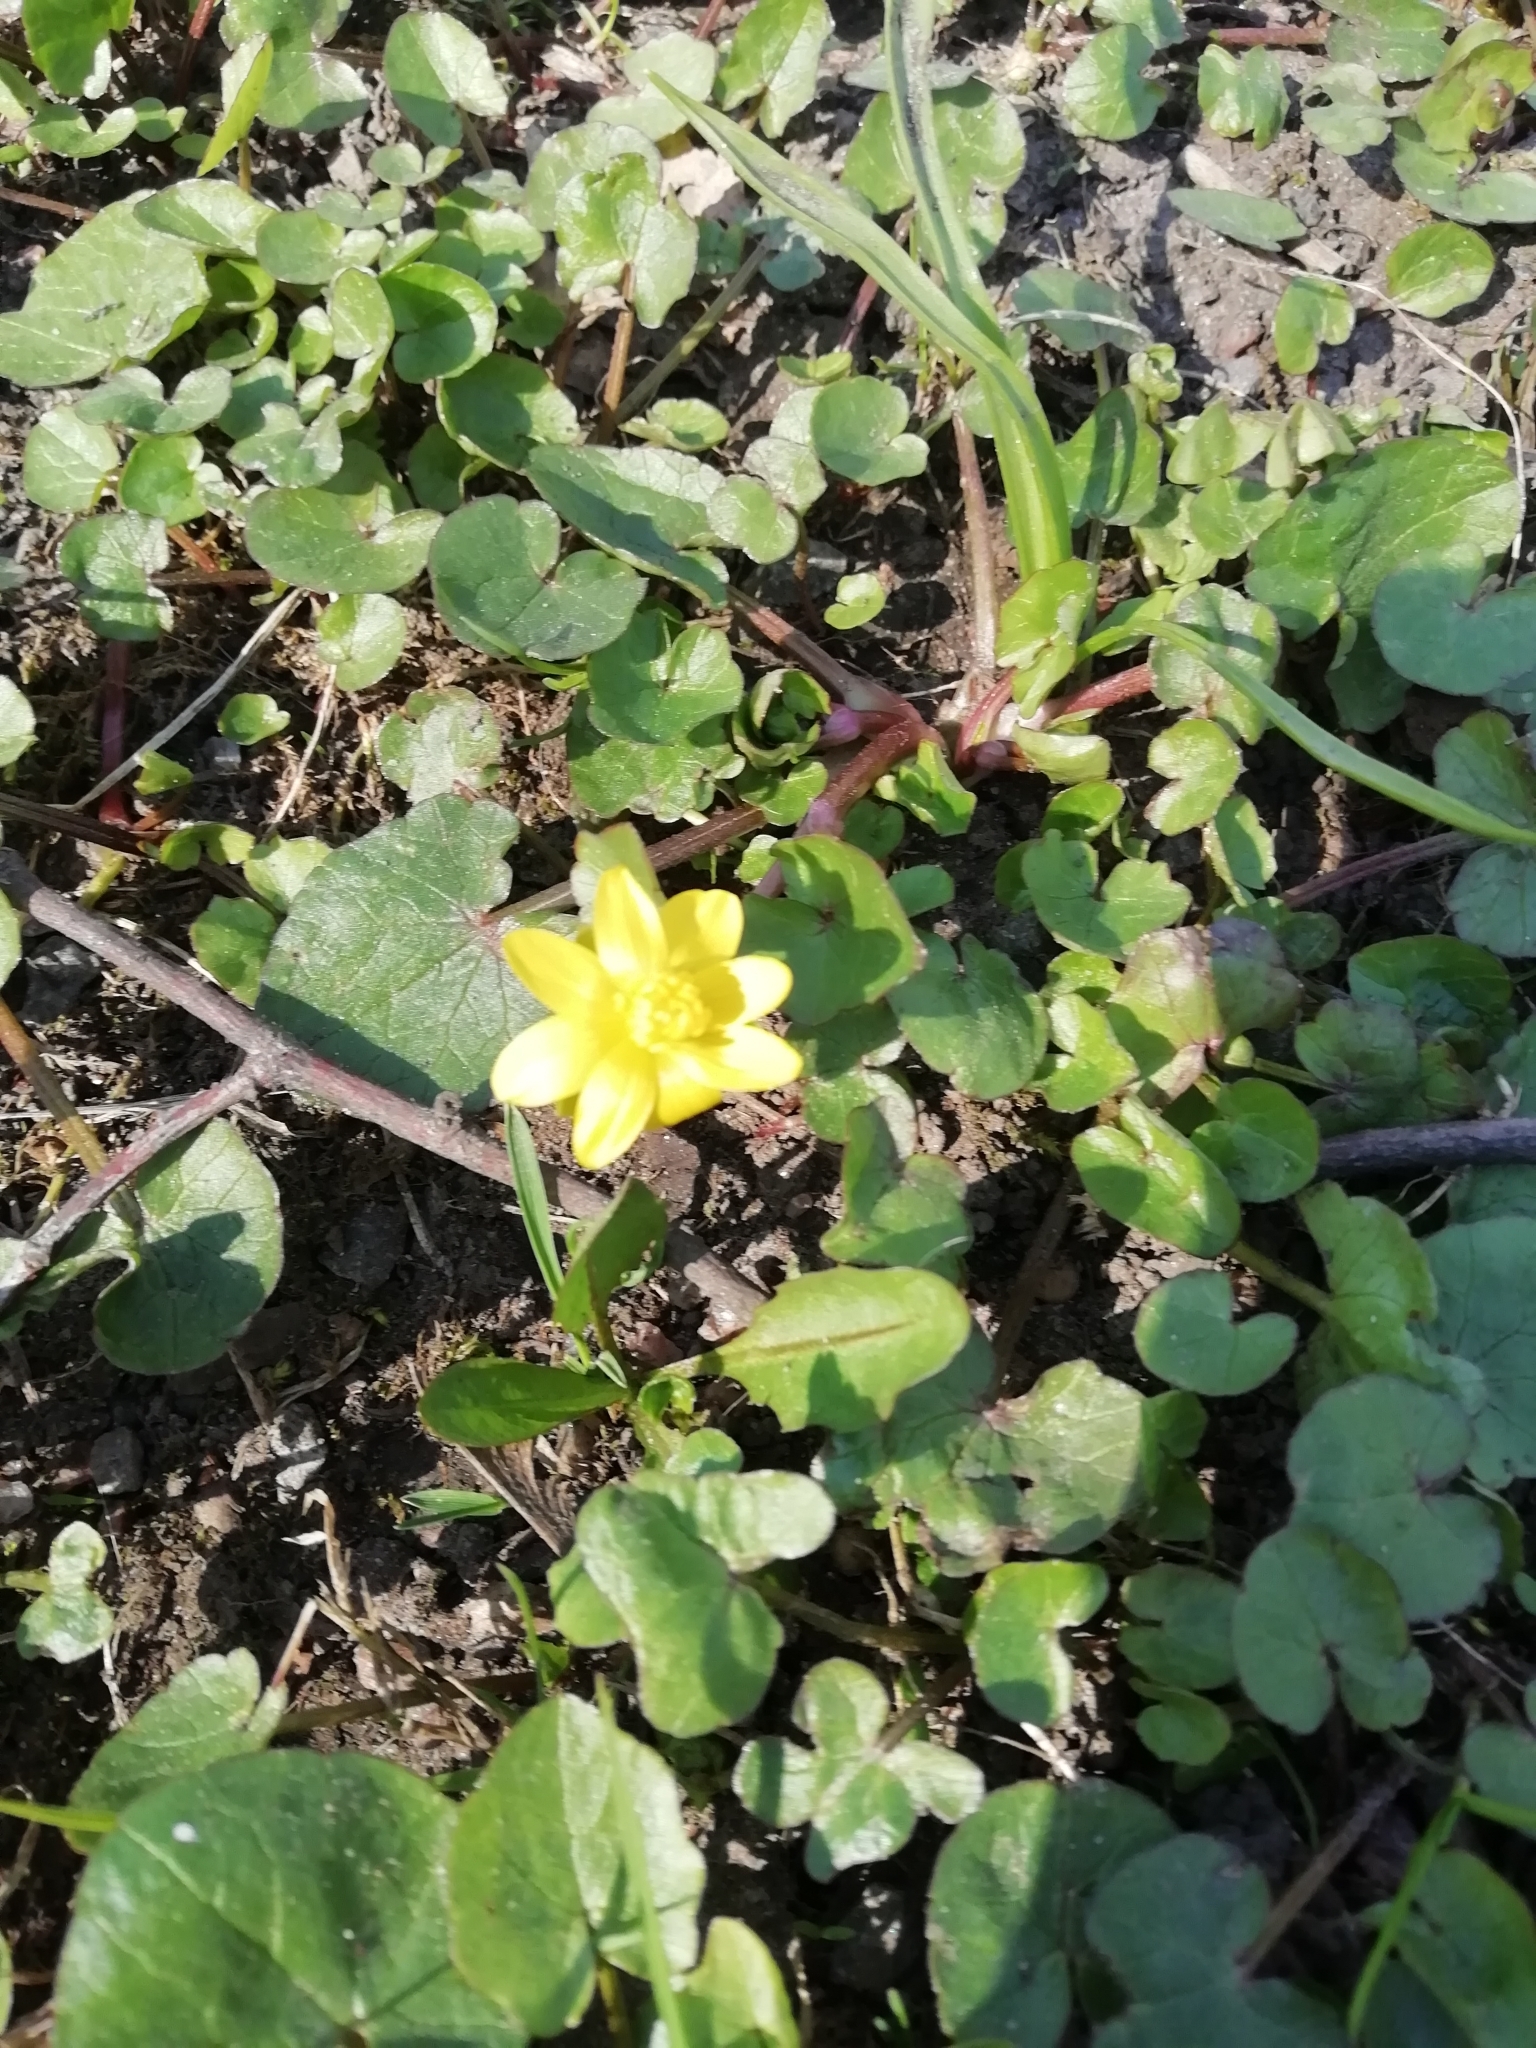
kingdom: Plantae
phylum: Tracheophyta
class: Magnoliopsida
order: Ranunculales
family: Ranunculaceae
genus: Ficaria
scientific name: Ficaria verna
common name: Lesser celandine
